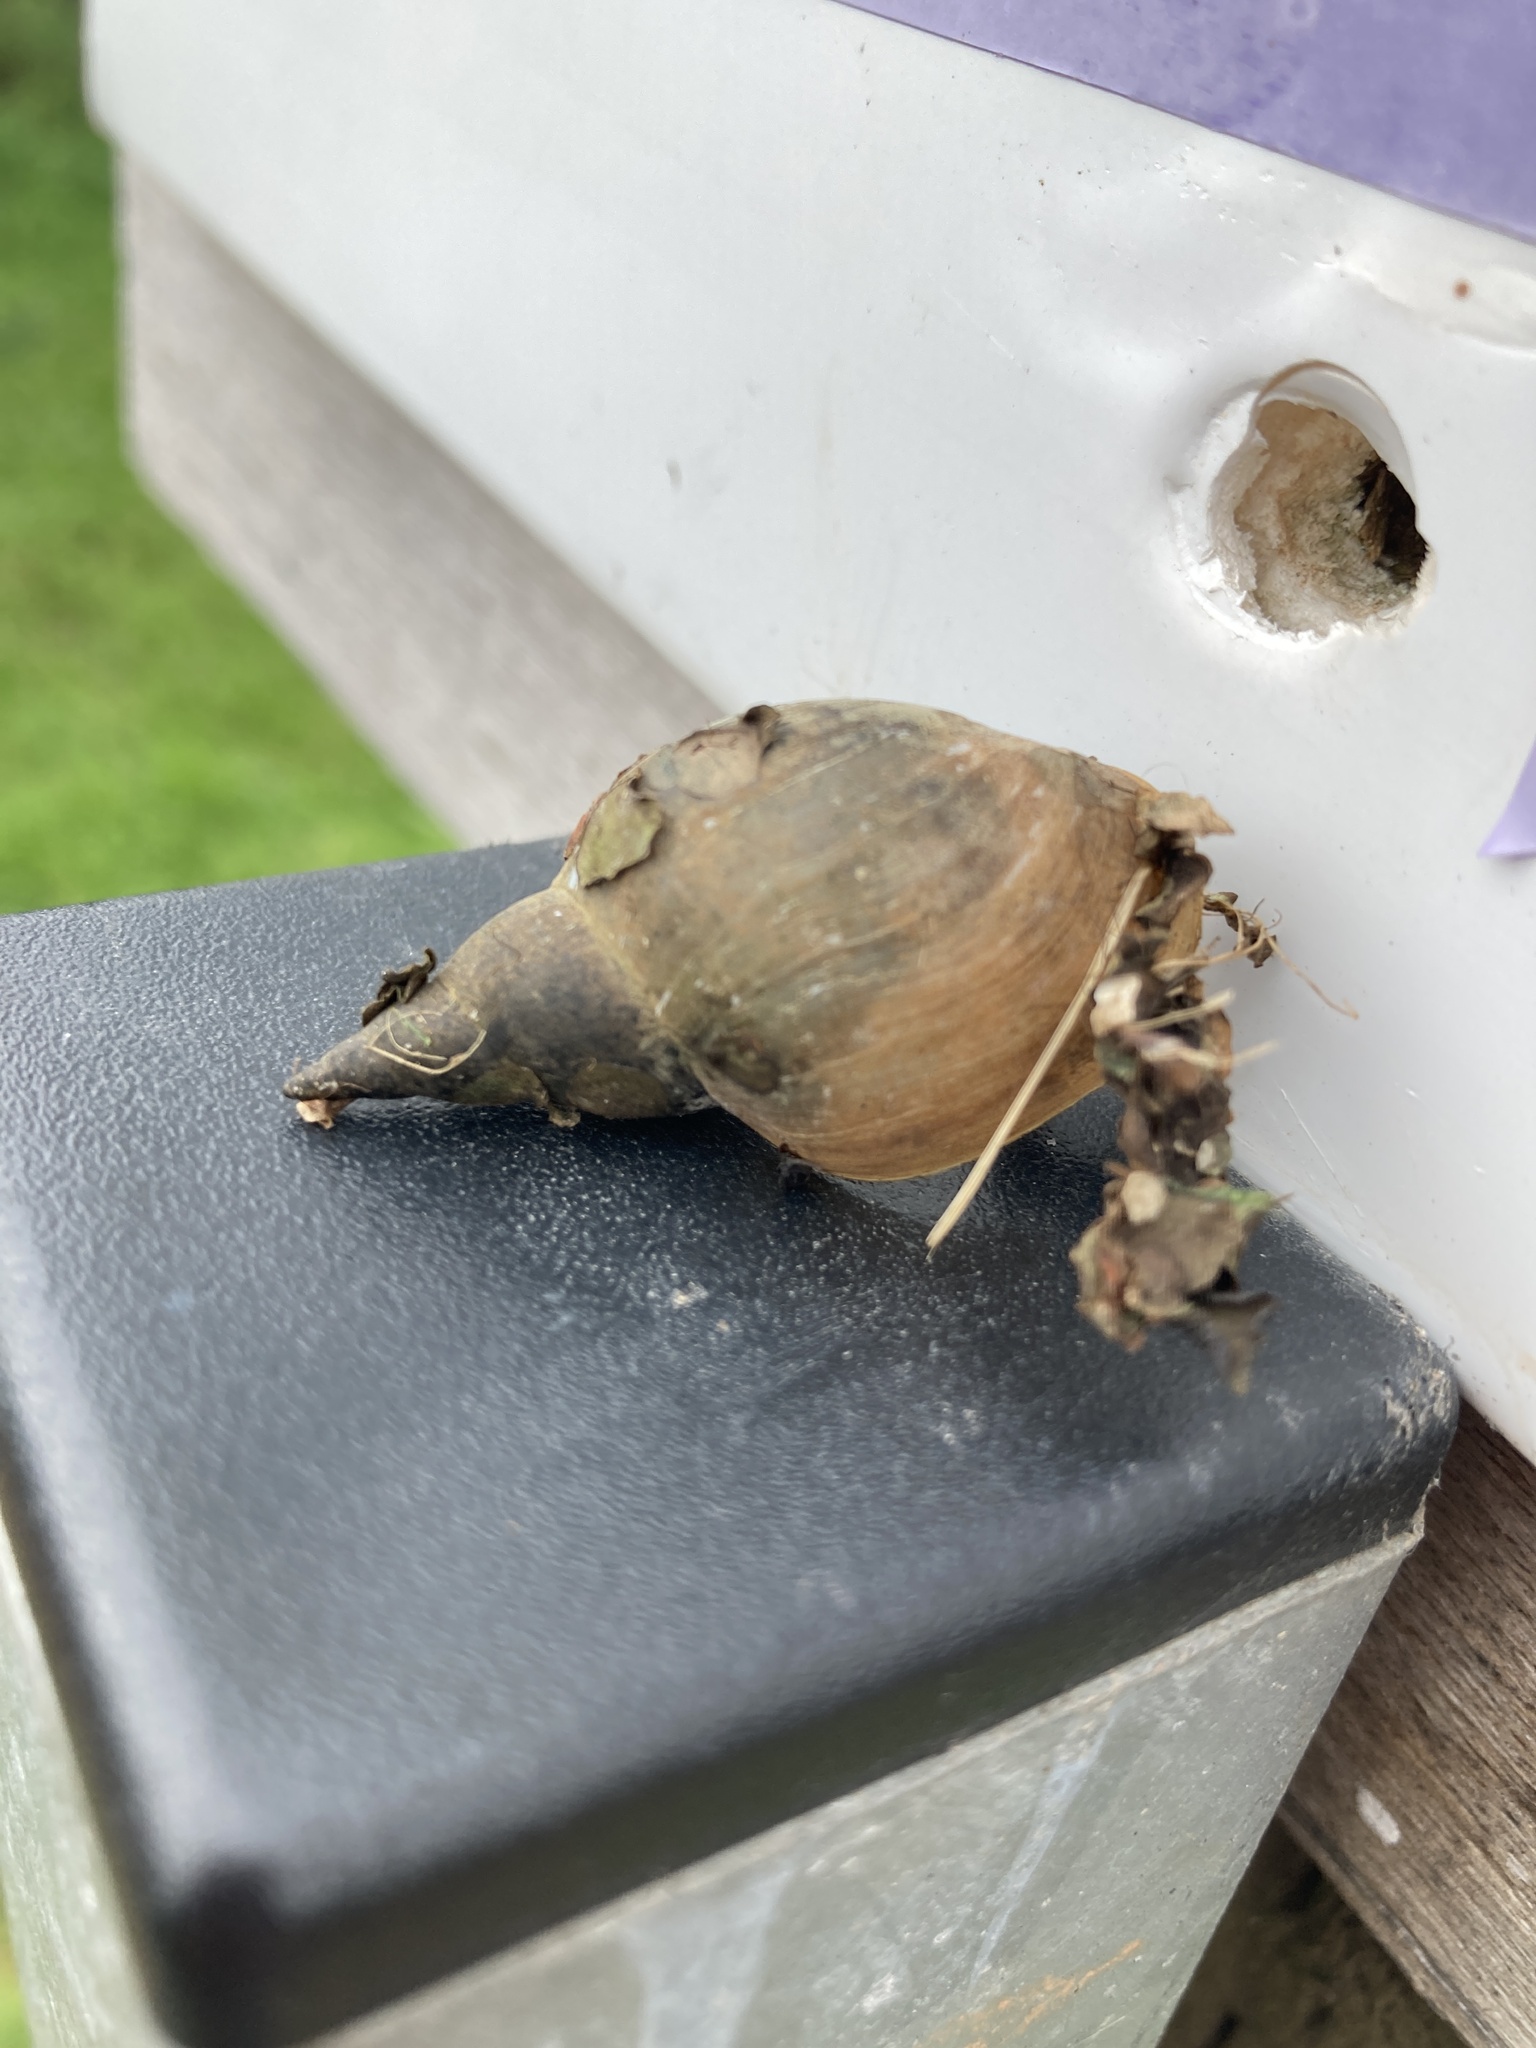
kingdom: Animalia
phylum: Mollusca
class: Gastropoda
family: Lymnaeidae
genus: Lymnaea
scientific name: Lymnaea stagnalis
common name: Great pond snail
